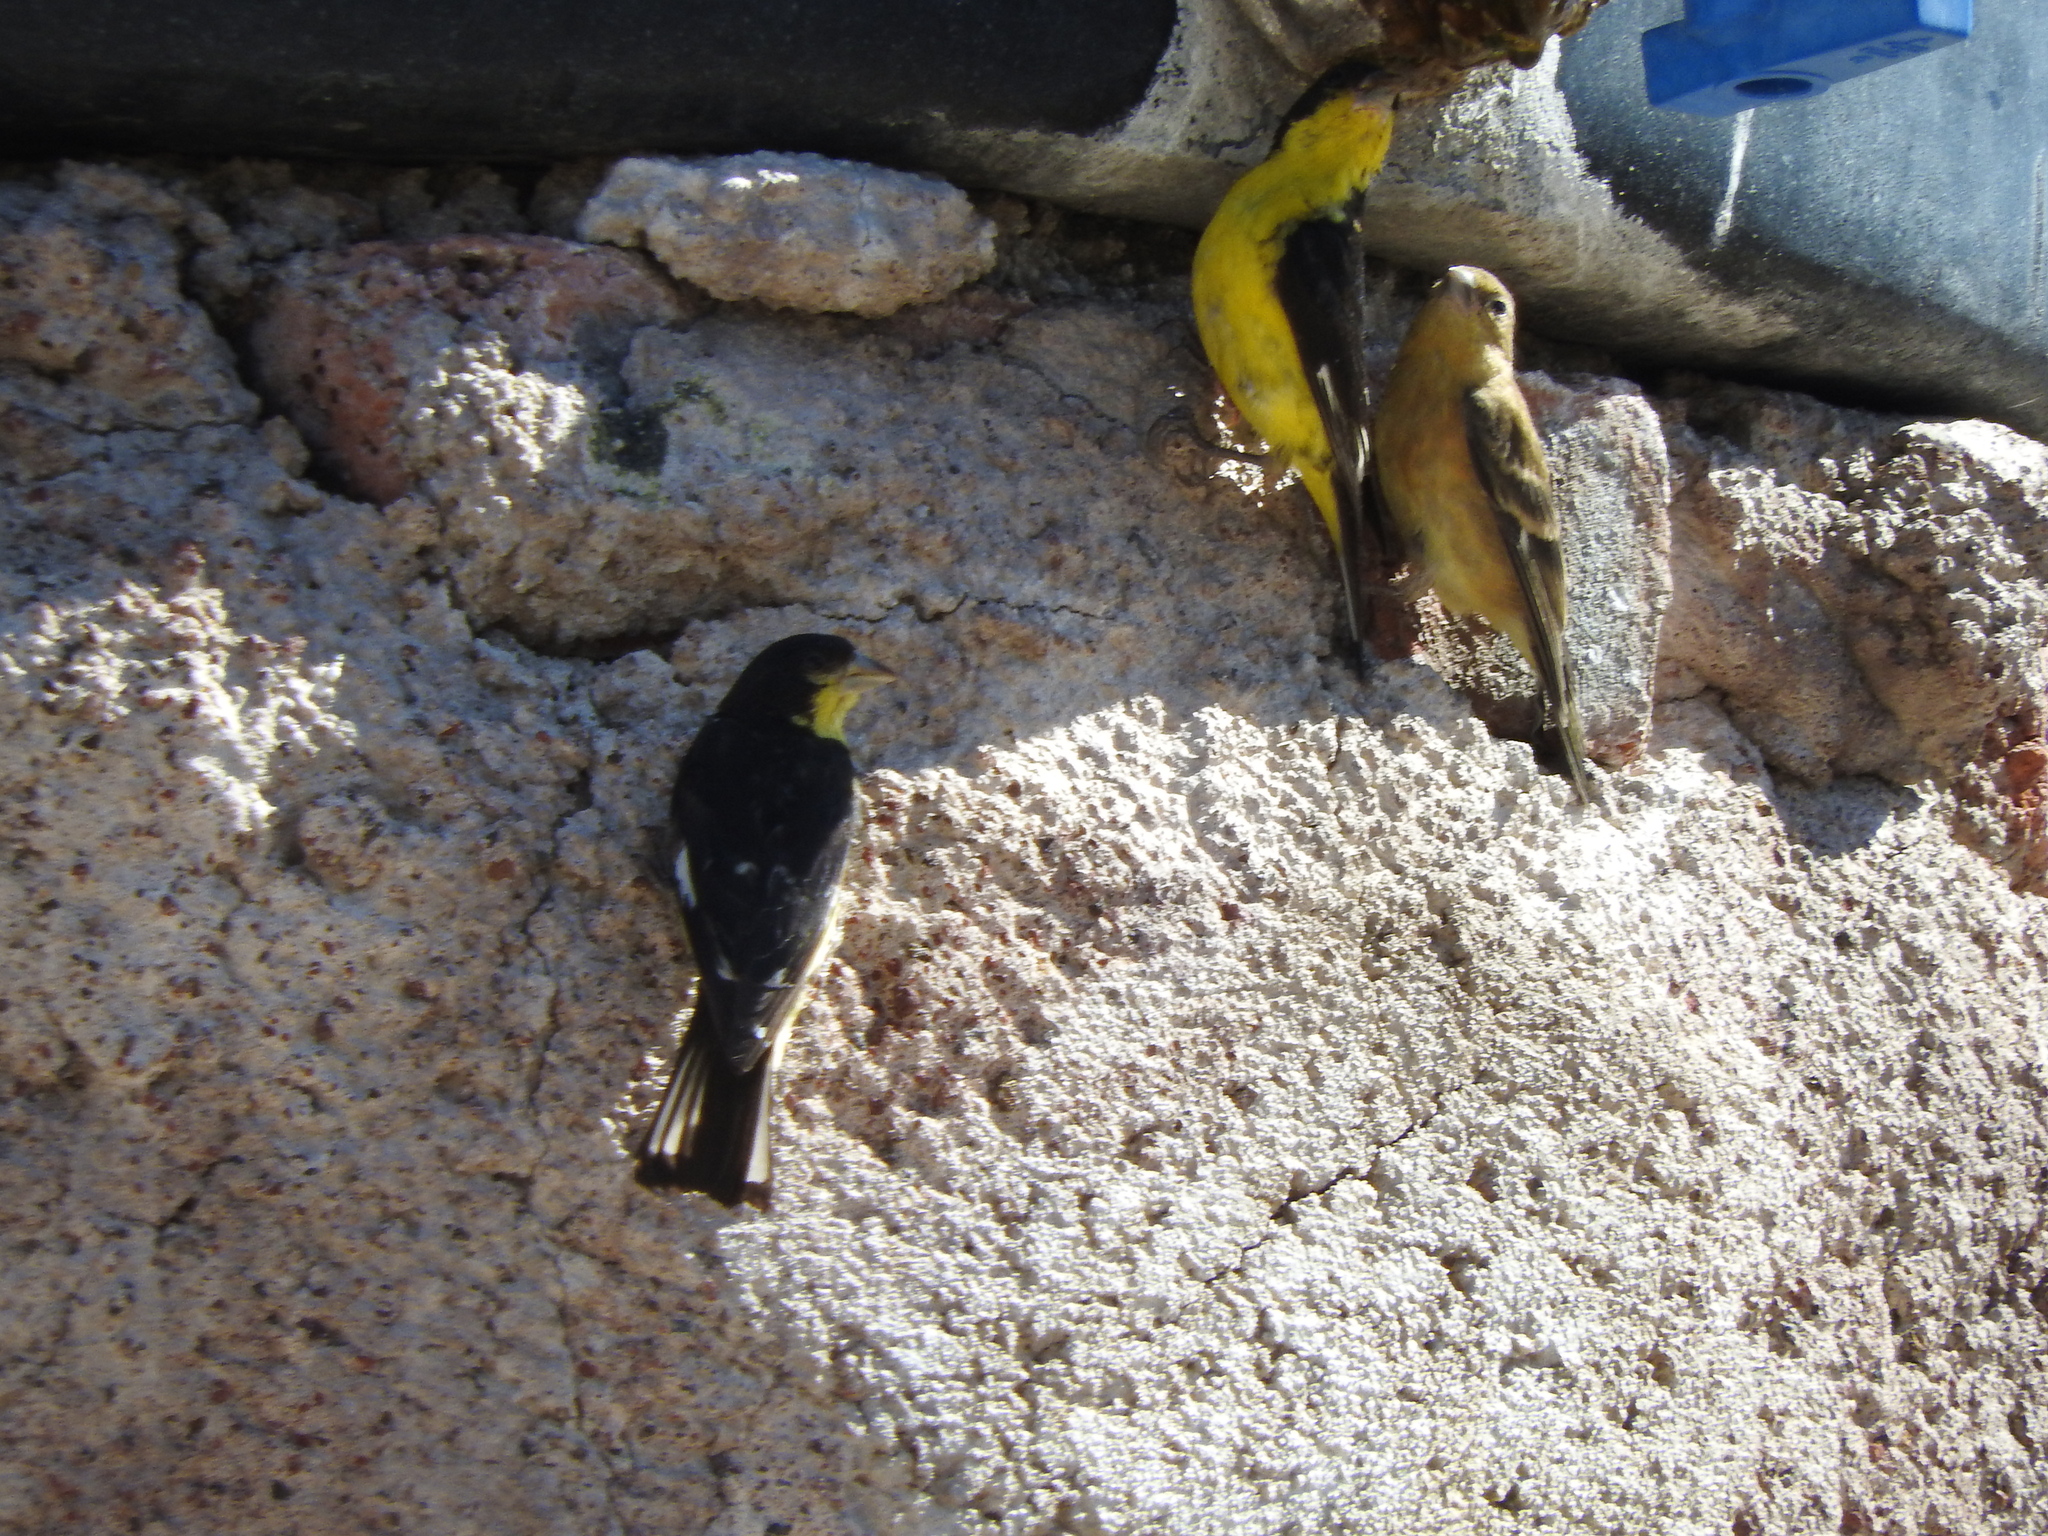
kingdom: Animalia
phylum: Chordata
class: Aves
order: Passeriformes
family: Fringillidae
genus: Spinus
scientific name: Spinus psaltria
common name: Lesser goldfinch
